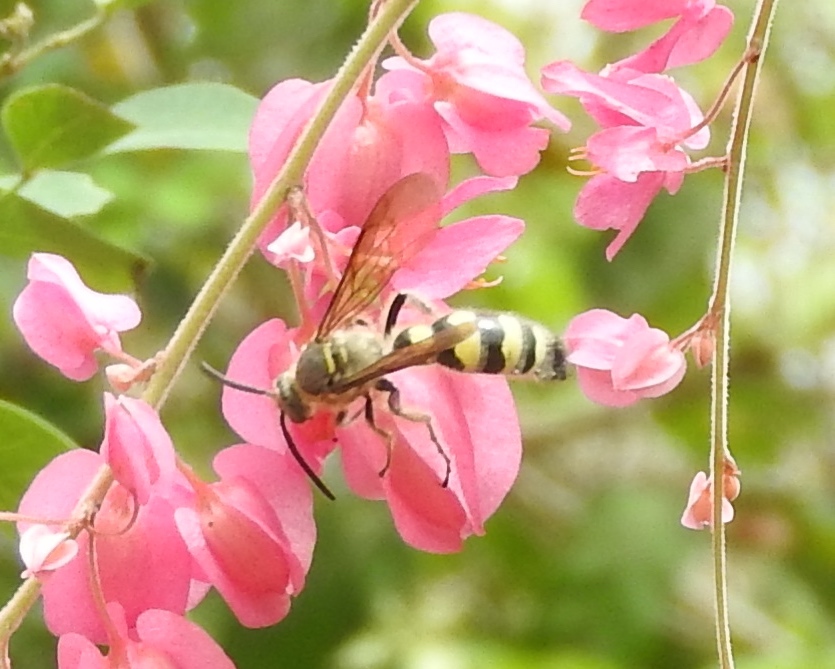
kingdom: Animalia
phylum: Arthropoda
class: Insecta
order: Hymenoptera
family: Scoliidae
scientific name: Scoliidae
